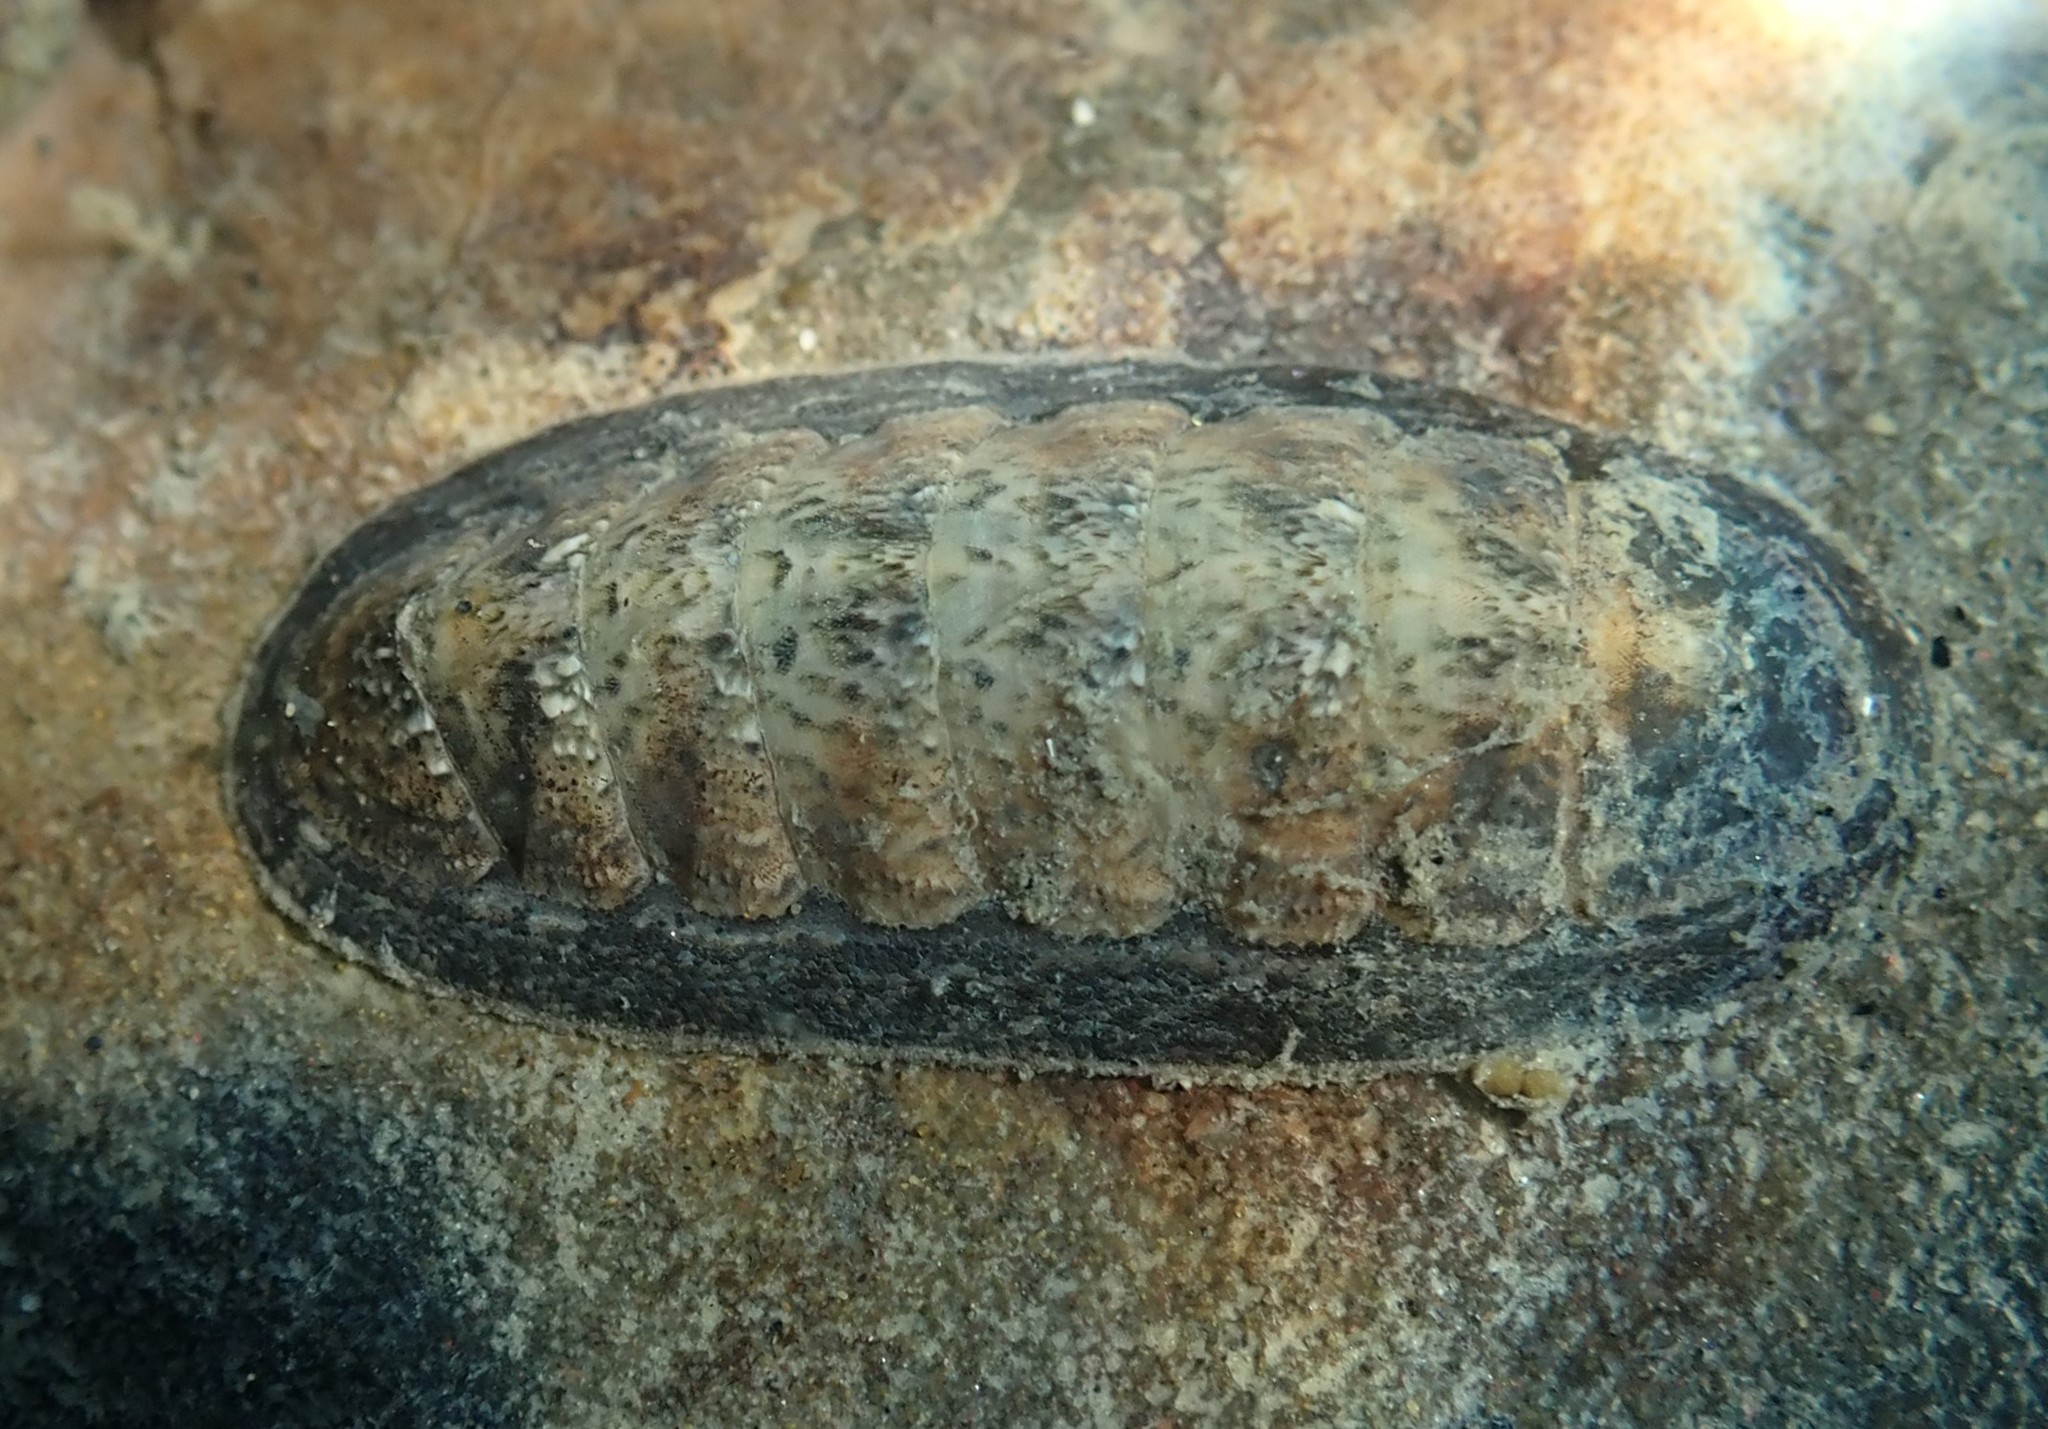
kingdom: Animalia
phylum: Mollusca
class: Polyplacophora
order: Chitonida
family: Ischnochitonidae
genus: Ischnochiton
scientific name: Ischnochiton maorianus
